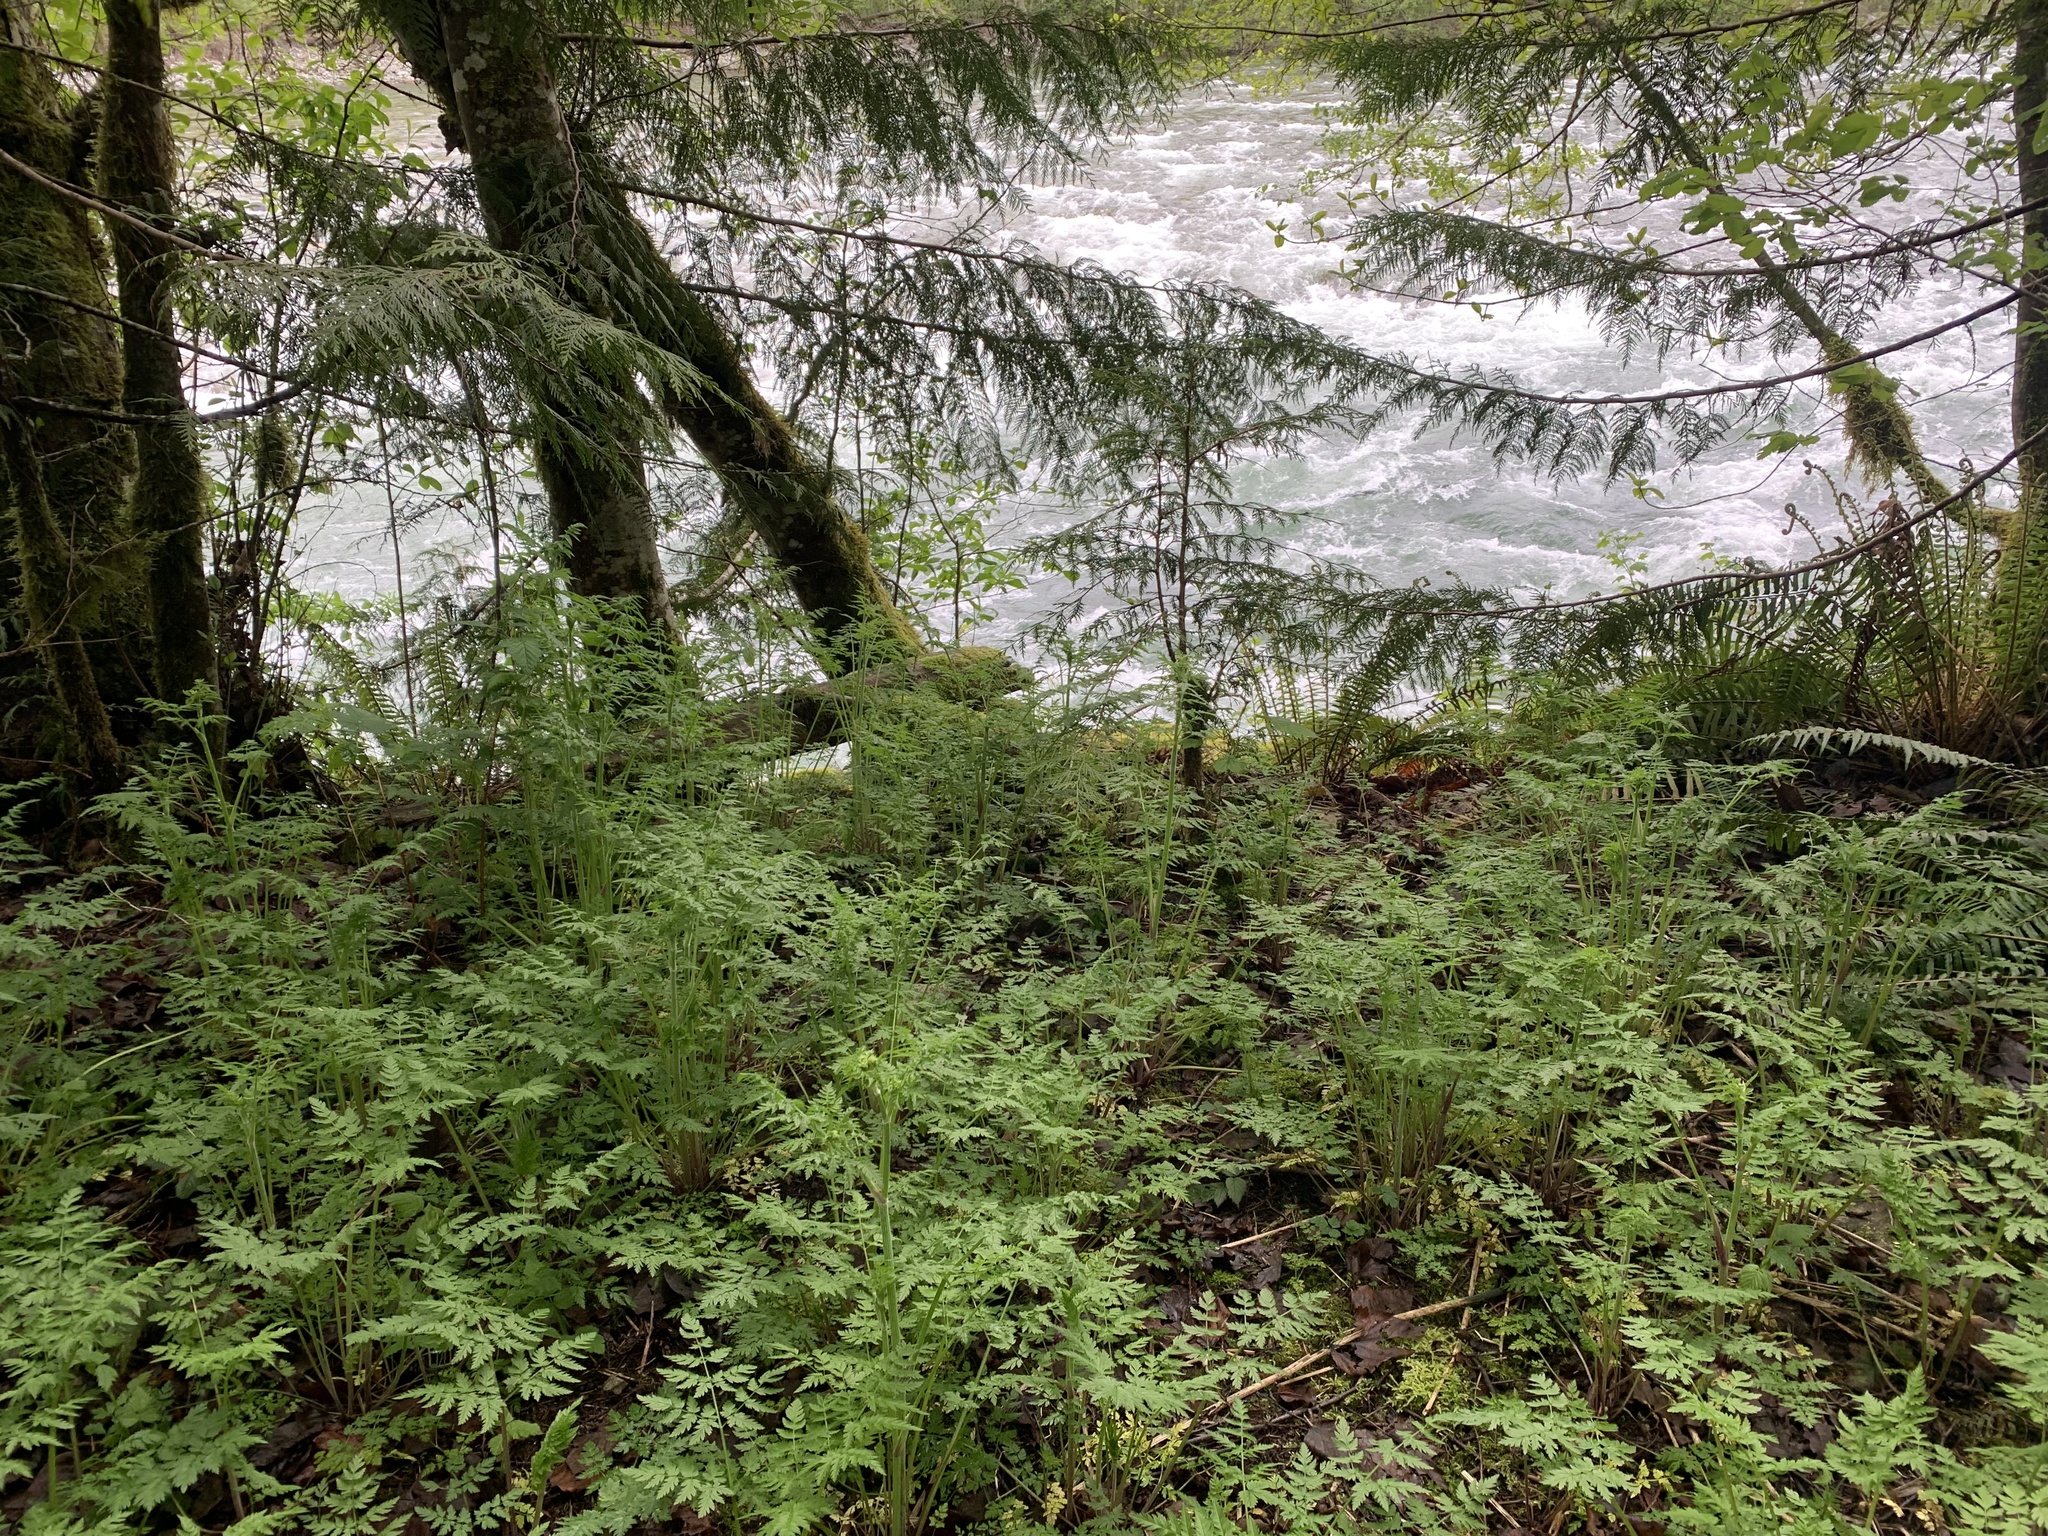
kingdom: Plantae
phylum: Tracheophyta
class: Magnoliopsida
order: Apiales
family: Apiaceae
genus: Anthriscus
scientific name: Anthriscus sylvestris
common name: Cow parsley
